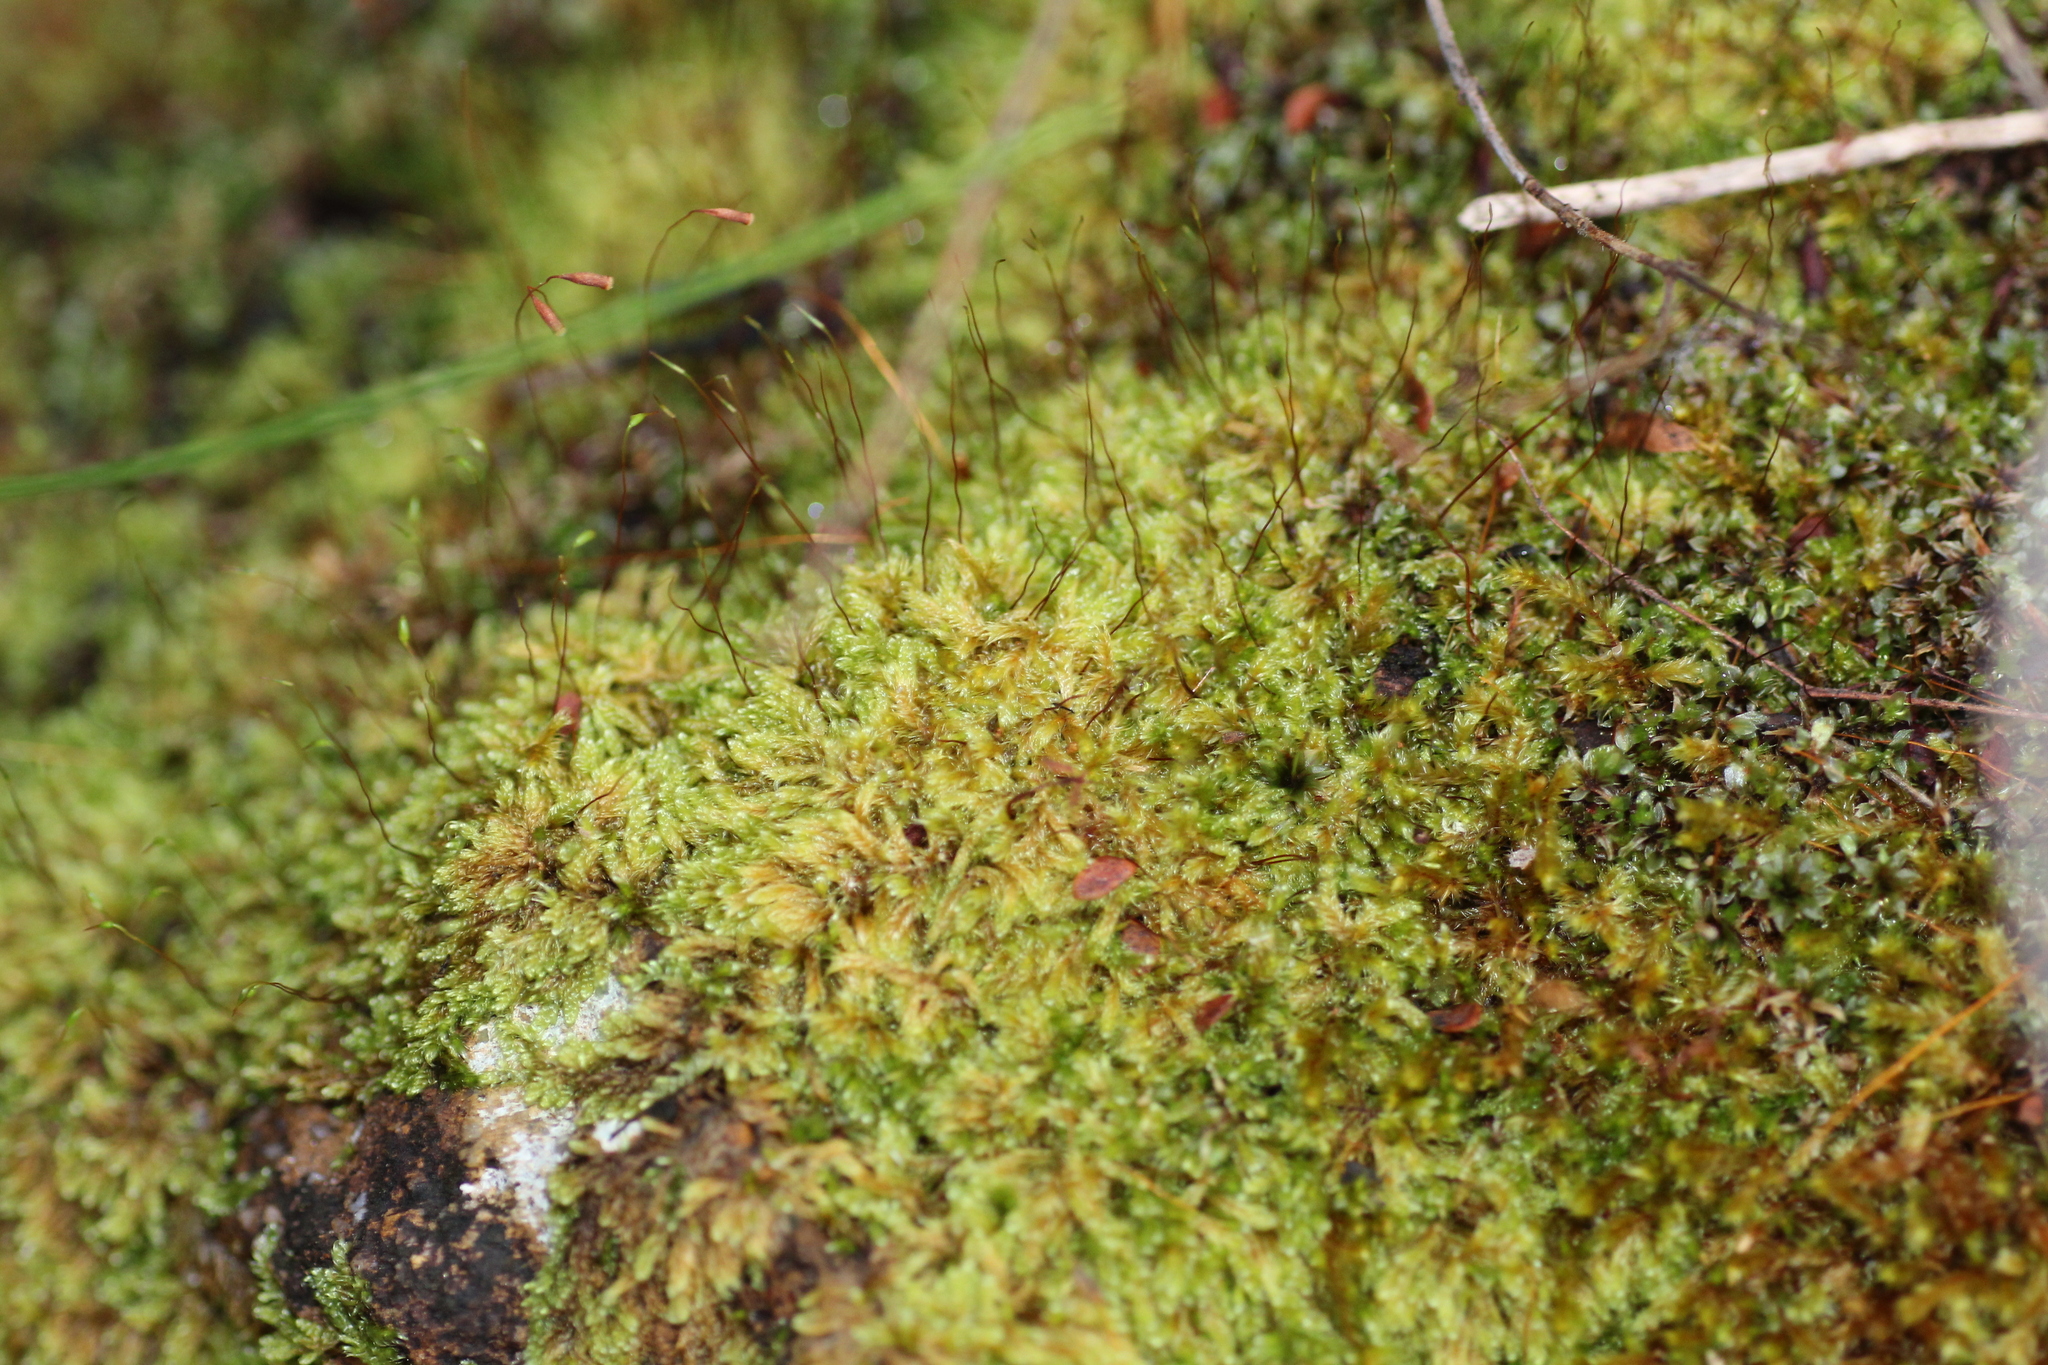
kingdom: Plantae
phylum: Bryophyta
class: Bryopsida
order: Hypnales
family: Sematophyllaceae
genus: Rhaphidorrhynchium
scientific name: Rhaphidorrhynchium amoenum
